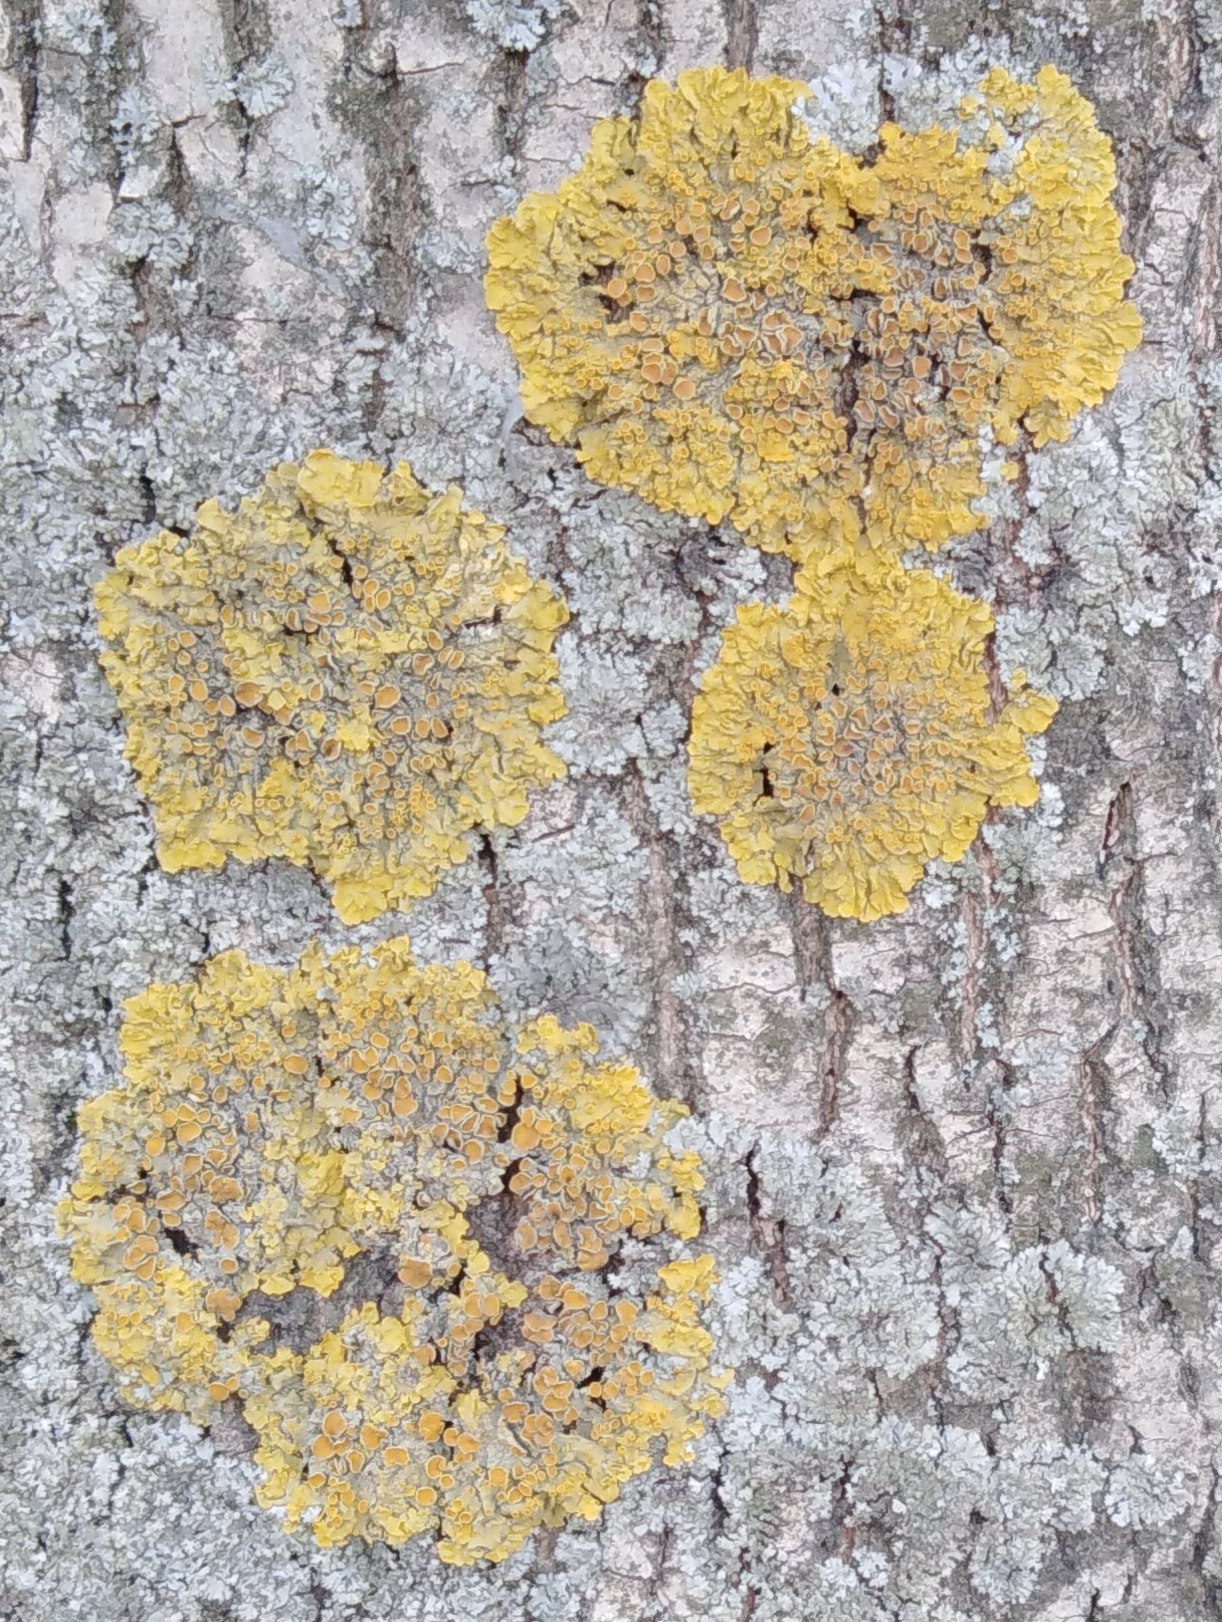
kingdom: Fungi
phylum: Ascomycota
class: Lecanoromycetes
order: Teloschistales
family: Teloschistaceae
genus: Xanthoria
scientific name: Xanthoria parietina
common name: Common orange lichen
